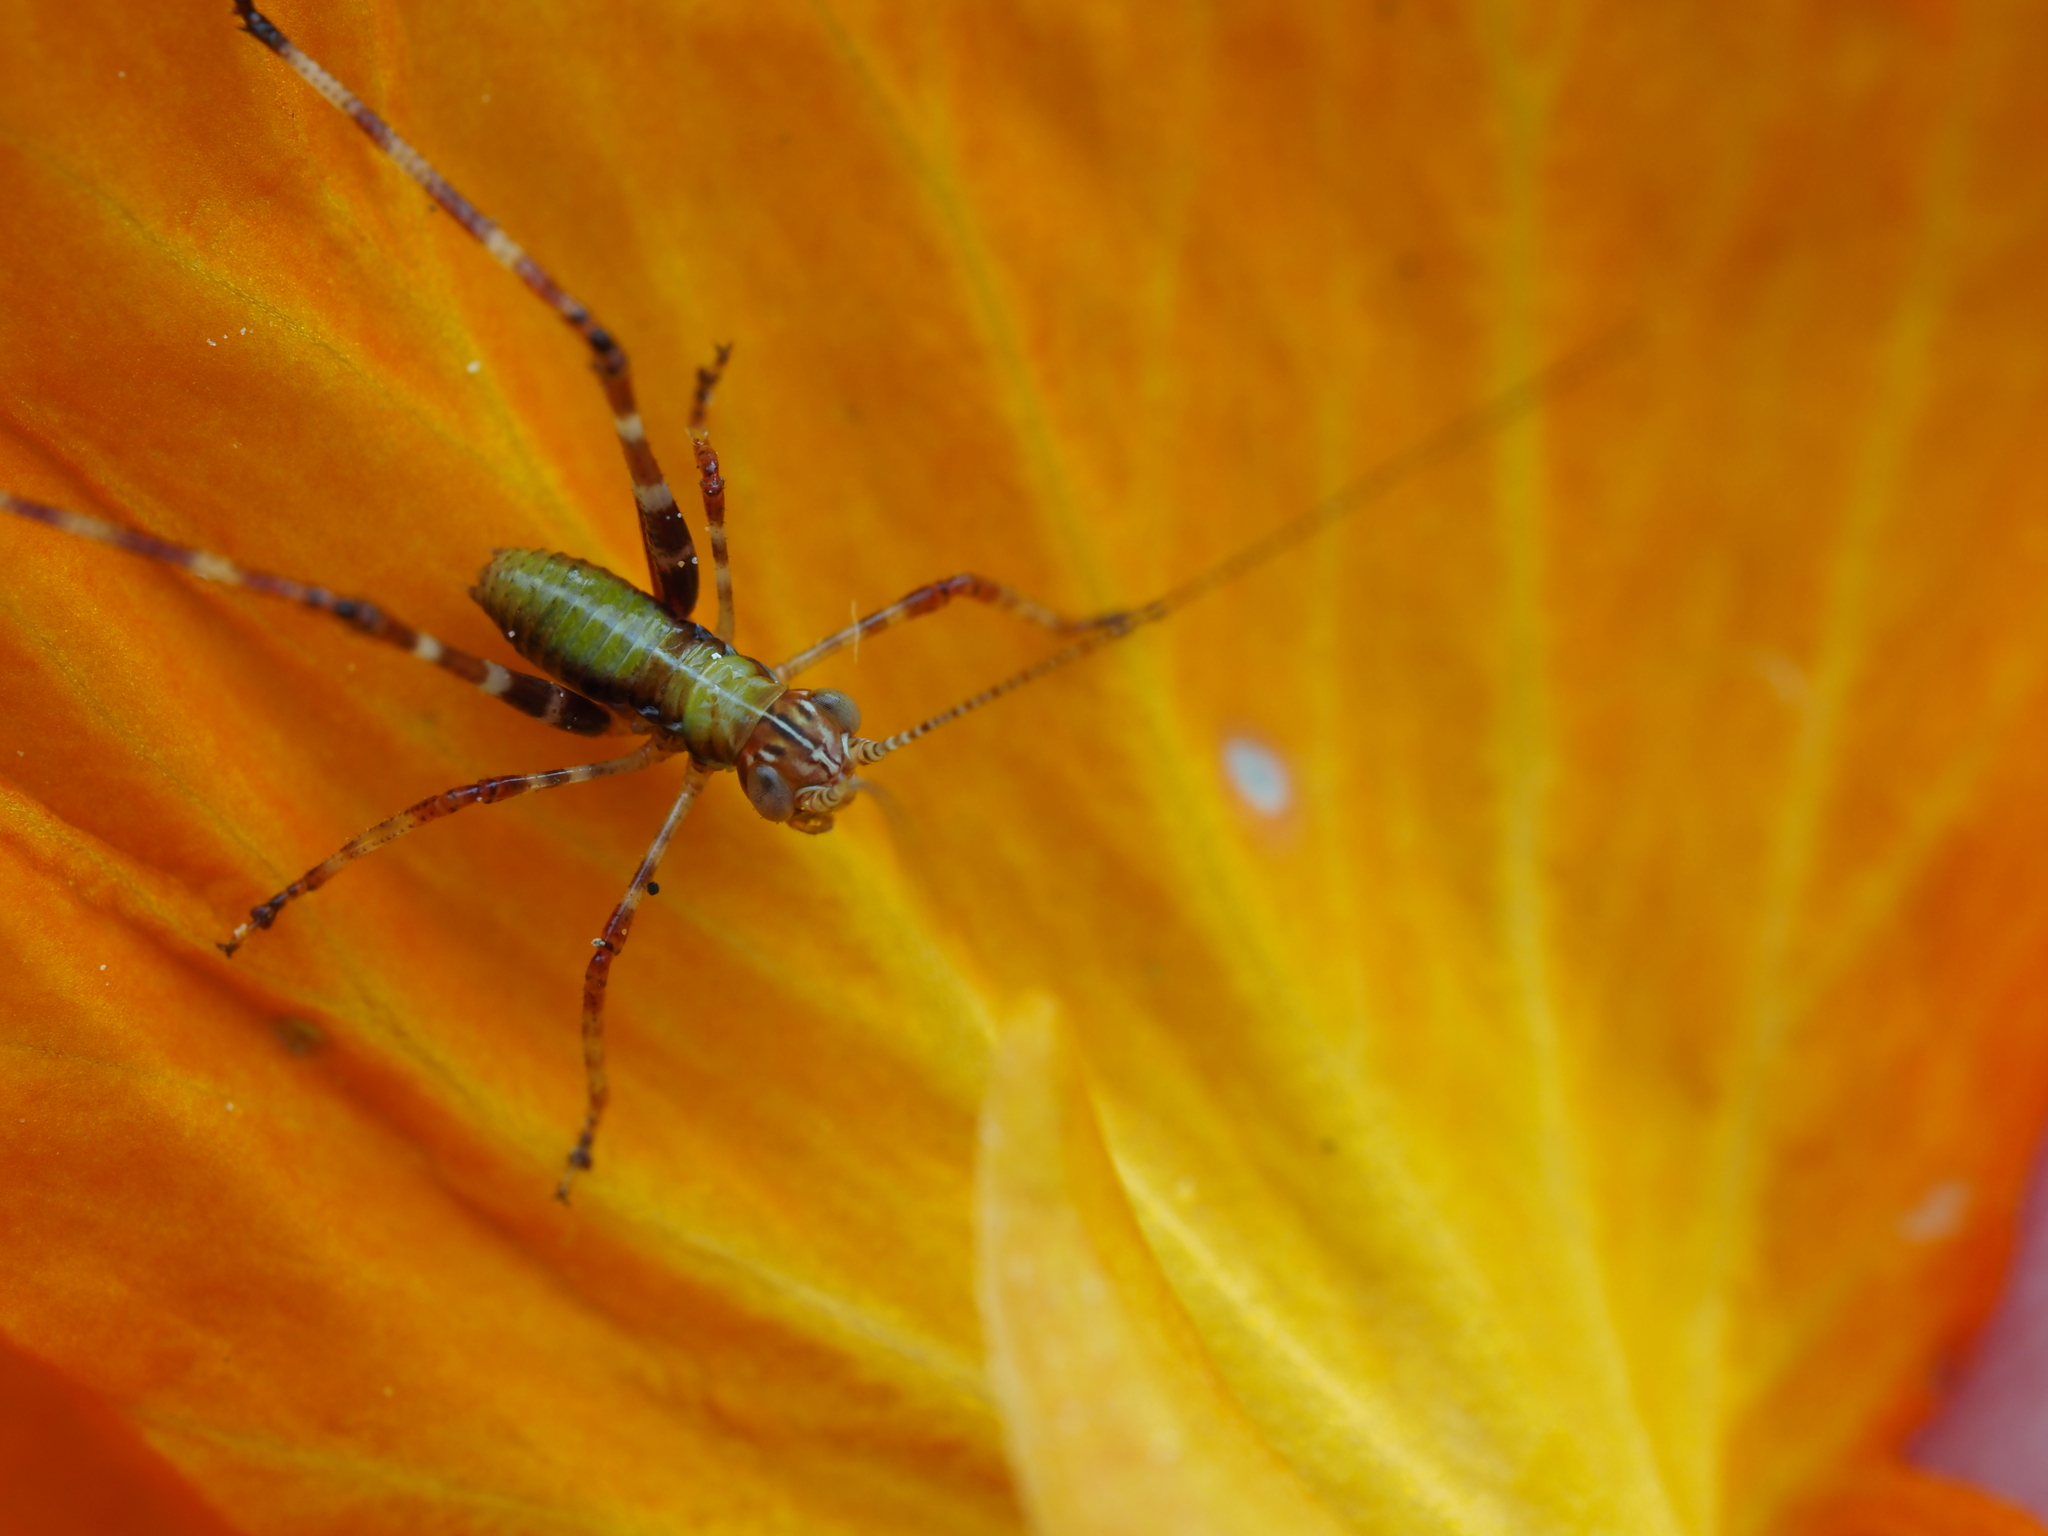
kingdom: Animalia
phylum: Arthropoda
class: Insecta
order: Orthoptera
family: Tettigoniidae
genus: Caedicia
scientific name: Caedicia simplex
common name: Common garden katydid
